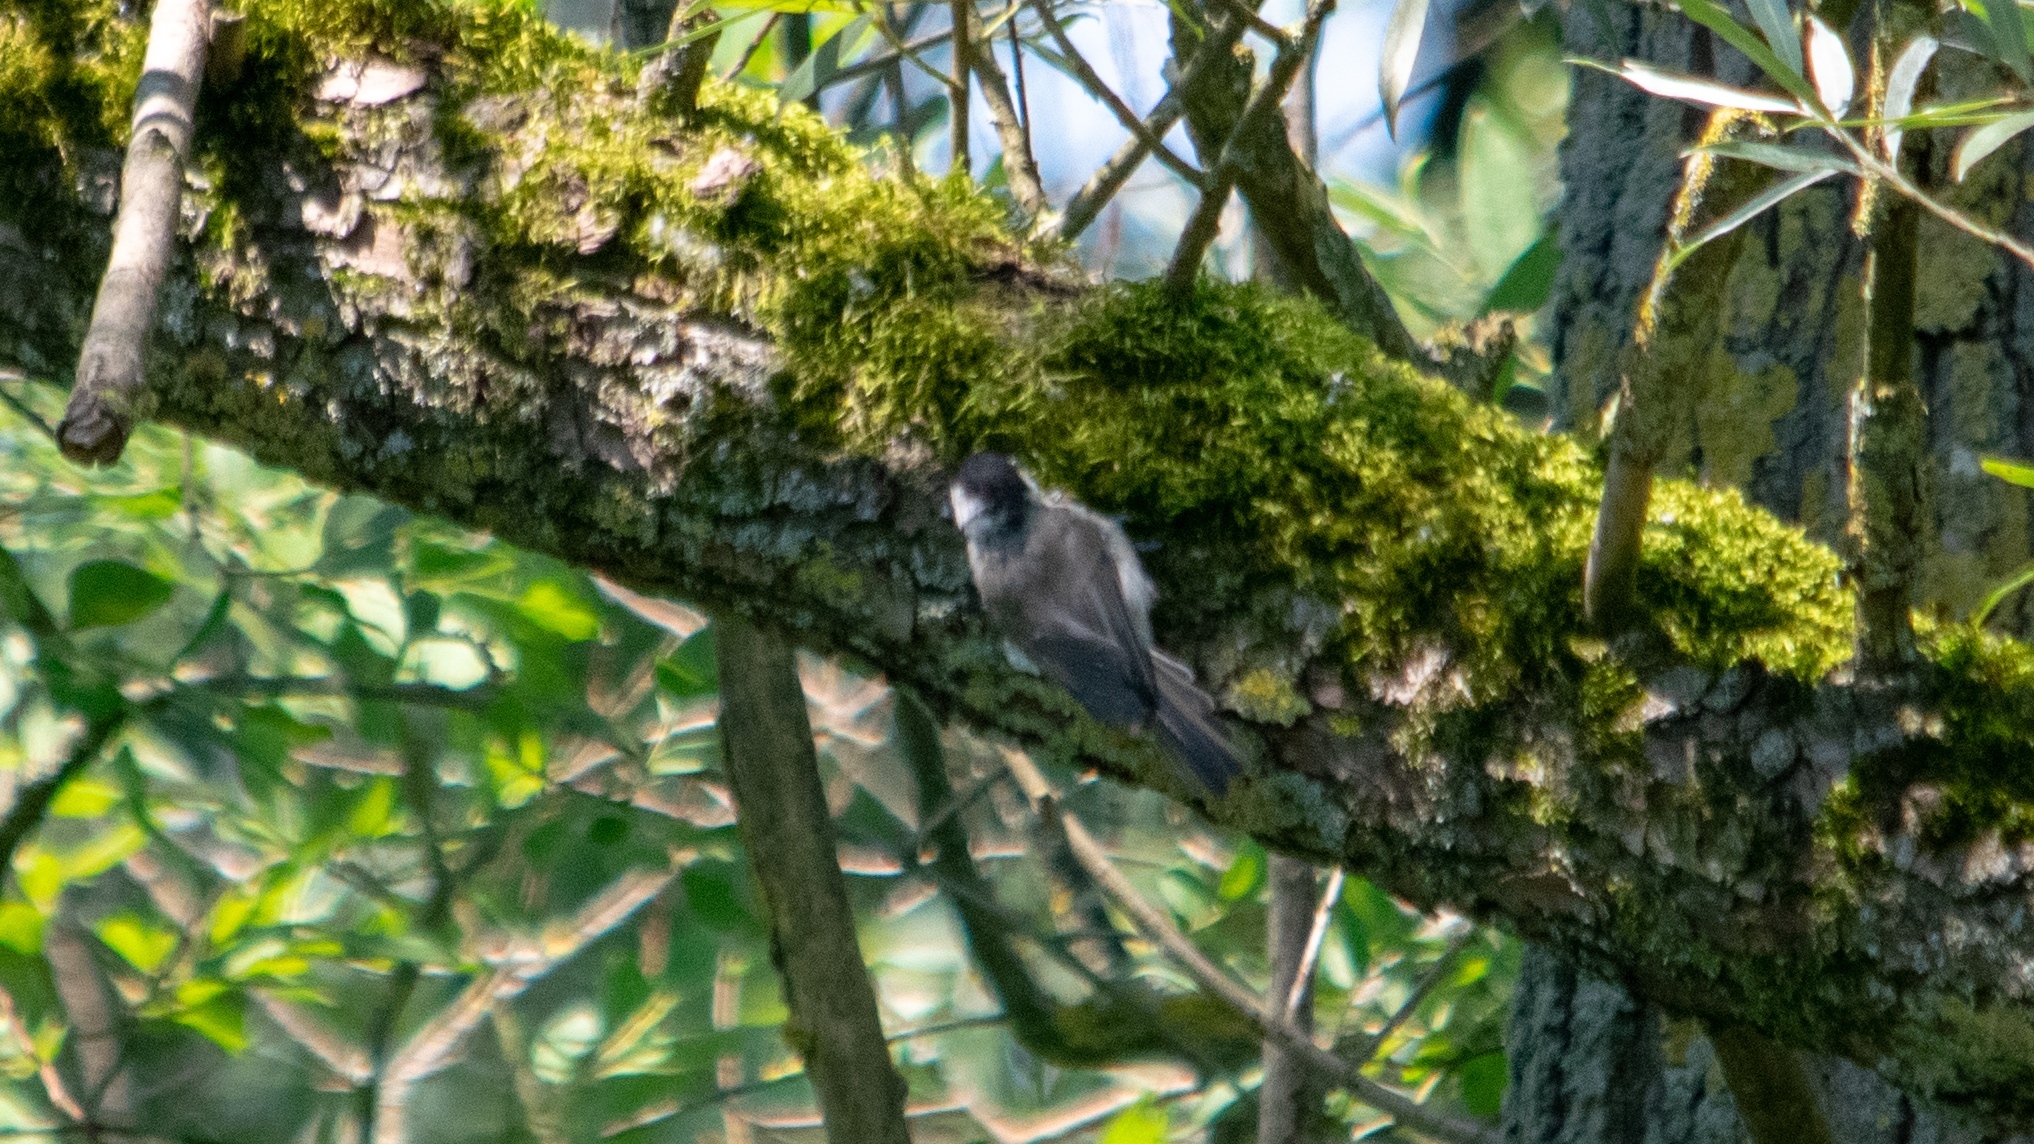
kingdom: Animalia
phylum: Chordata
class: Aves
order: Passeriformes
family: Paridae
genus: Poecile
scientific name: Poecile palustris
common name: Marsh tit
